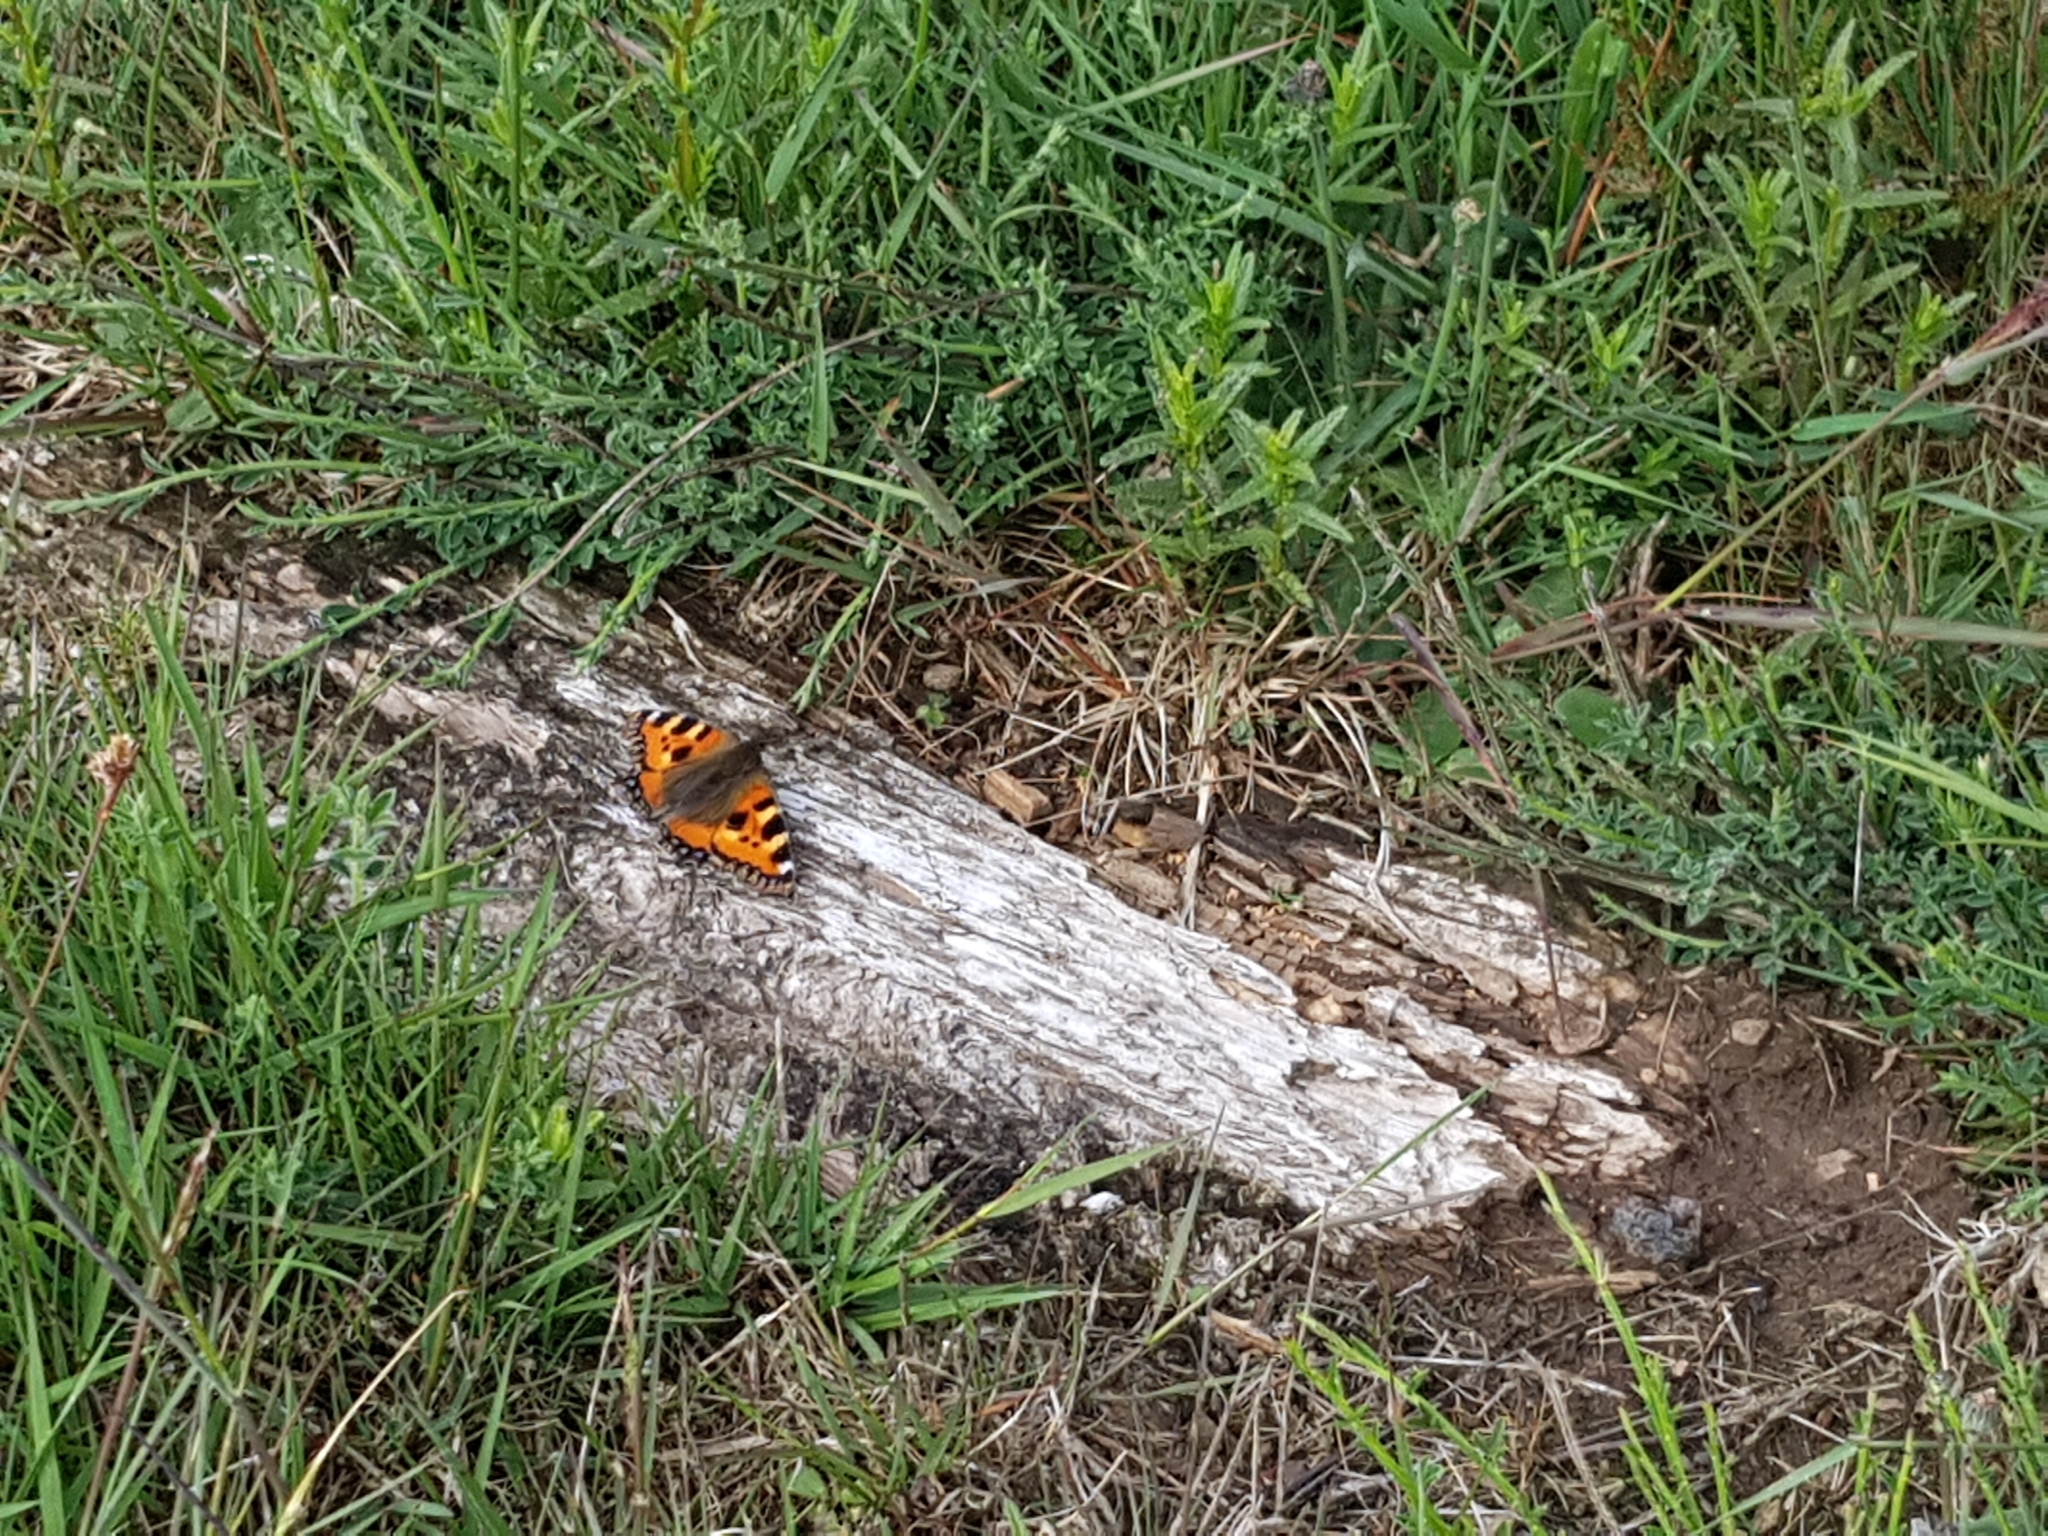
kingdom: Animalia
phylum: Arthropoda
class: Insecta
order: Lepidoptera
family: Nymphalidae
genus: Aglais
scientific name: Aglais urticae
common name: Small tortoiseshell
